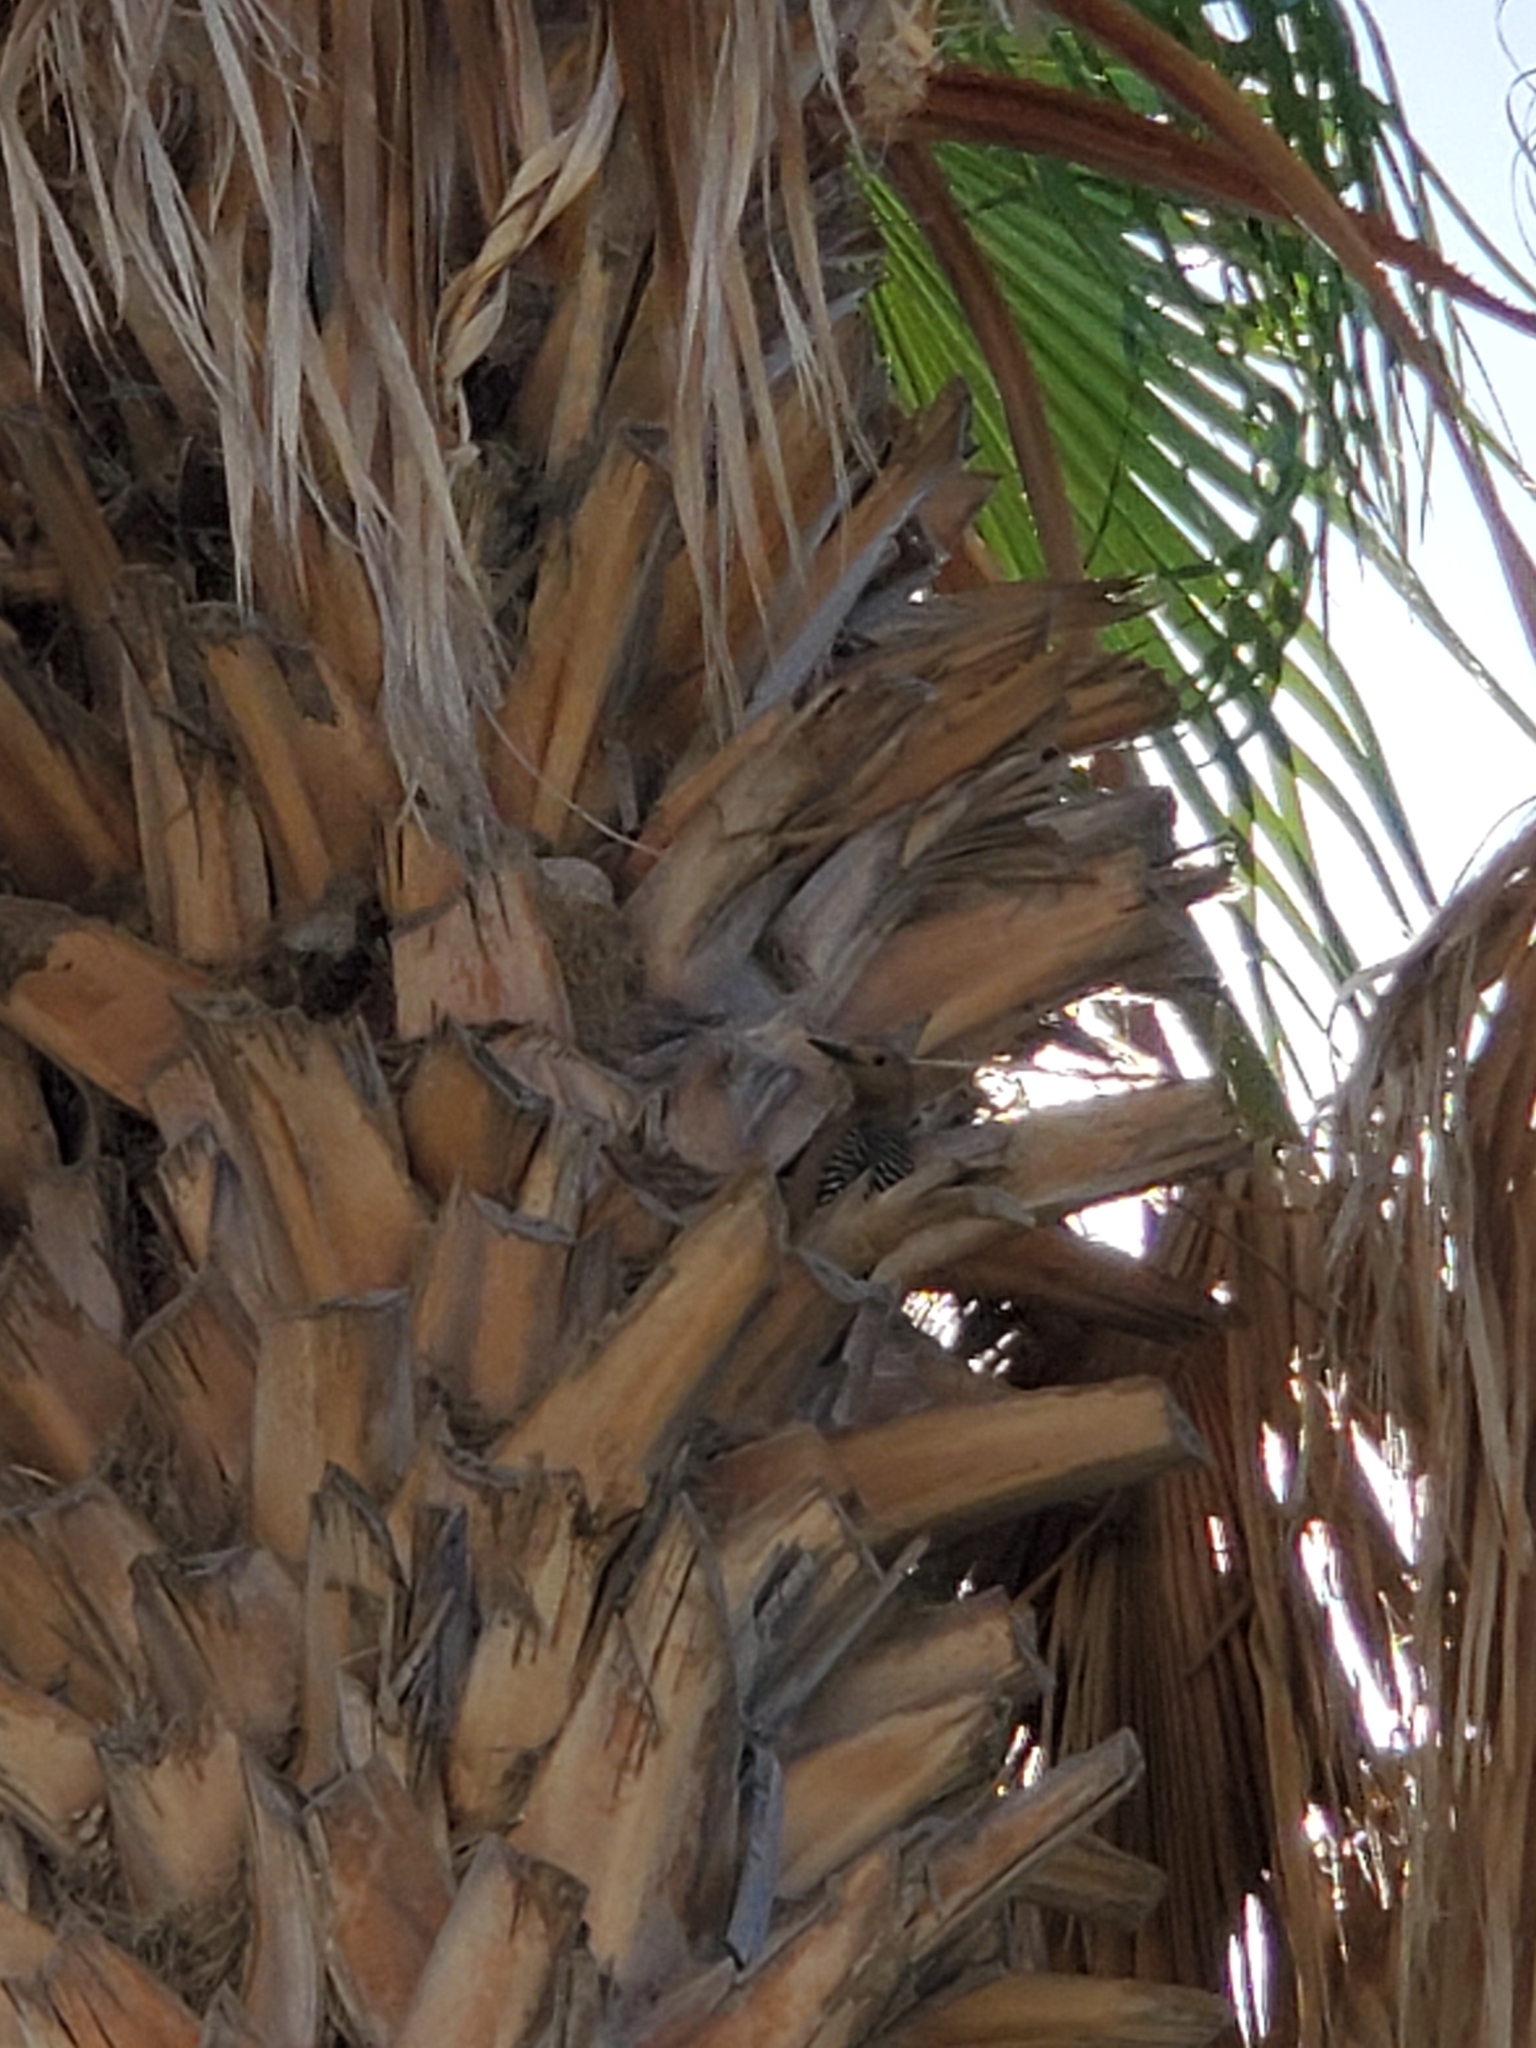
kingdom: Animalia
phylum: Chordata
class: Aves
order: Piciformes
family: Picidae
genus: Melanerpes
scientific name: Melanerpes uropygialis
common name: Gila woodpecker
